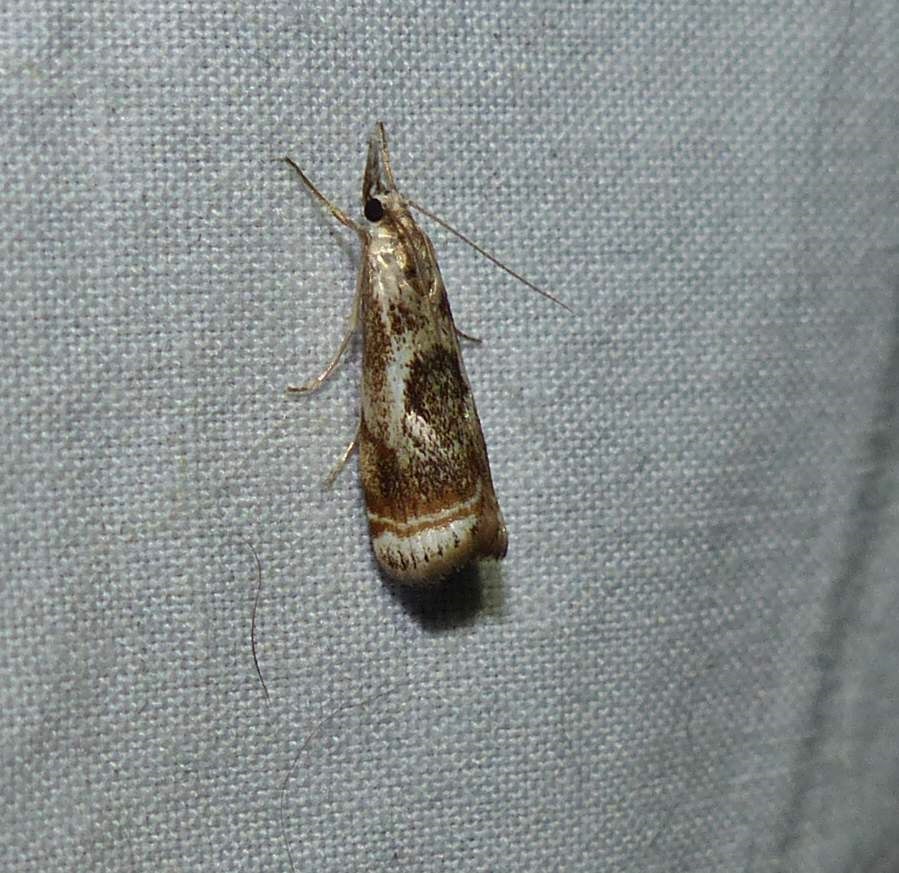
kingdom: Animalia
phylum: Arthropoda
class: Insecta
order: Lepidoptera
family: Crambidae
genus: Microcrambus
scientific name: Microcrambus elegans
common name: Elegant grass-veneer
